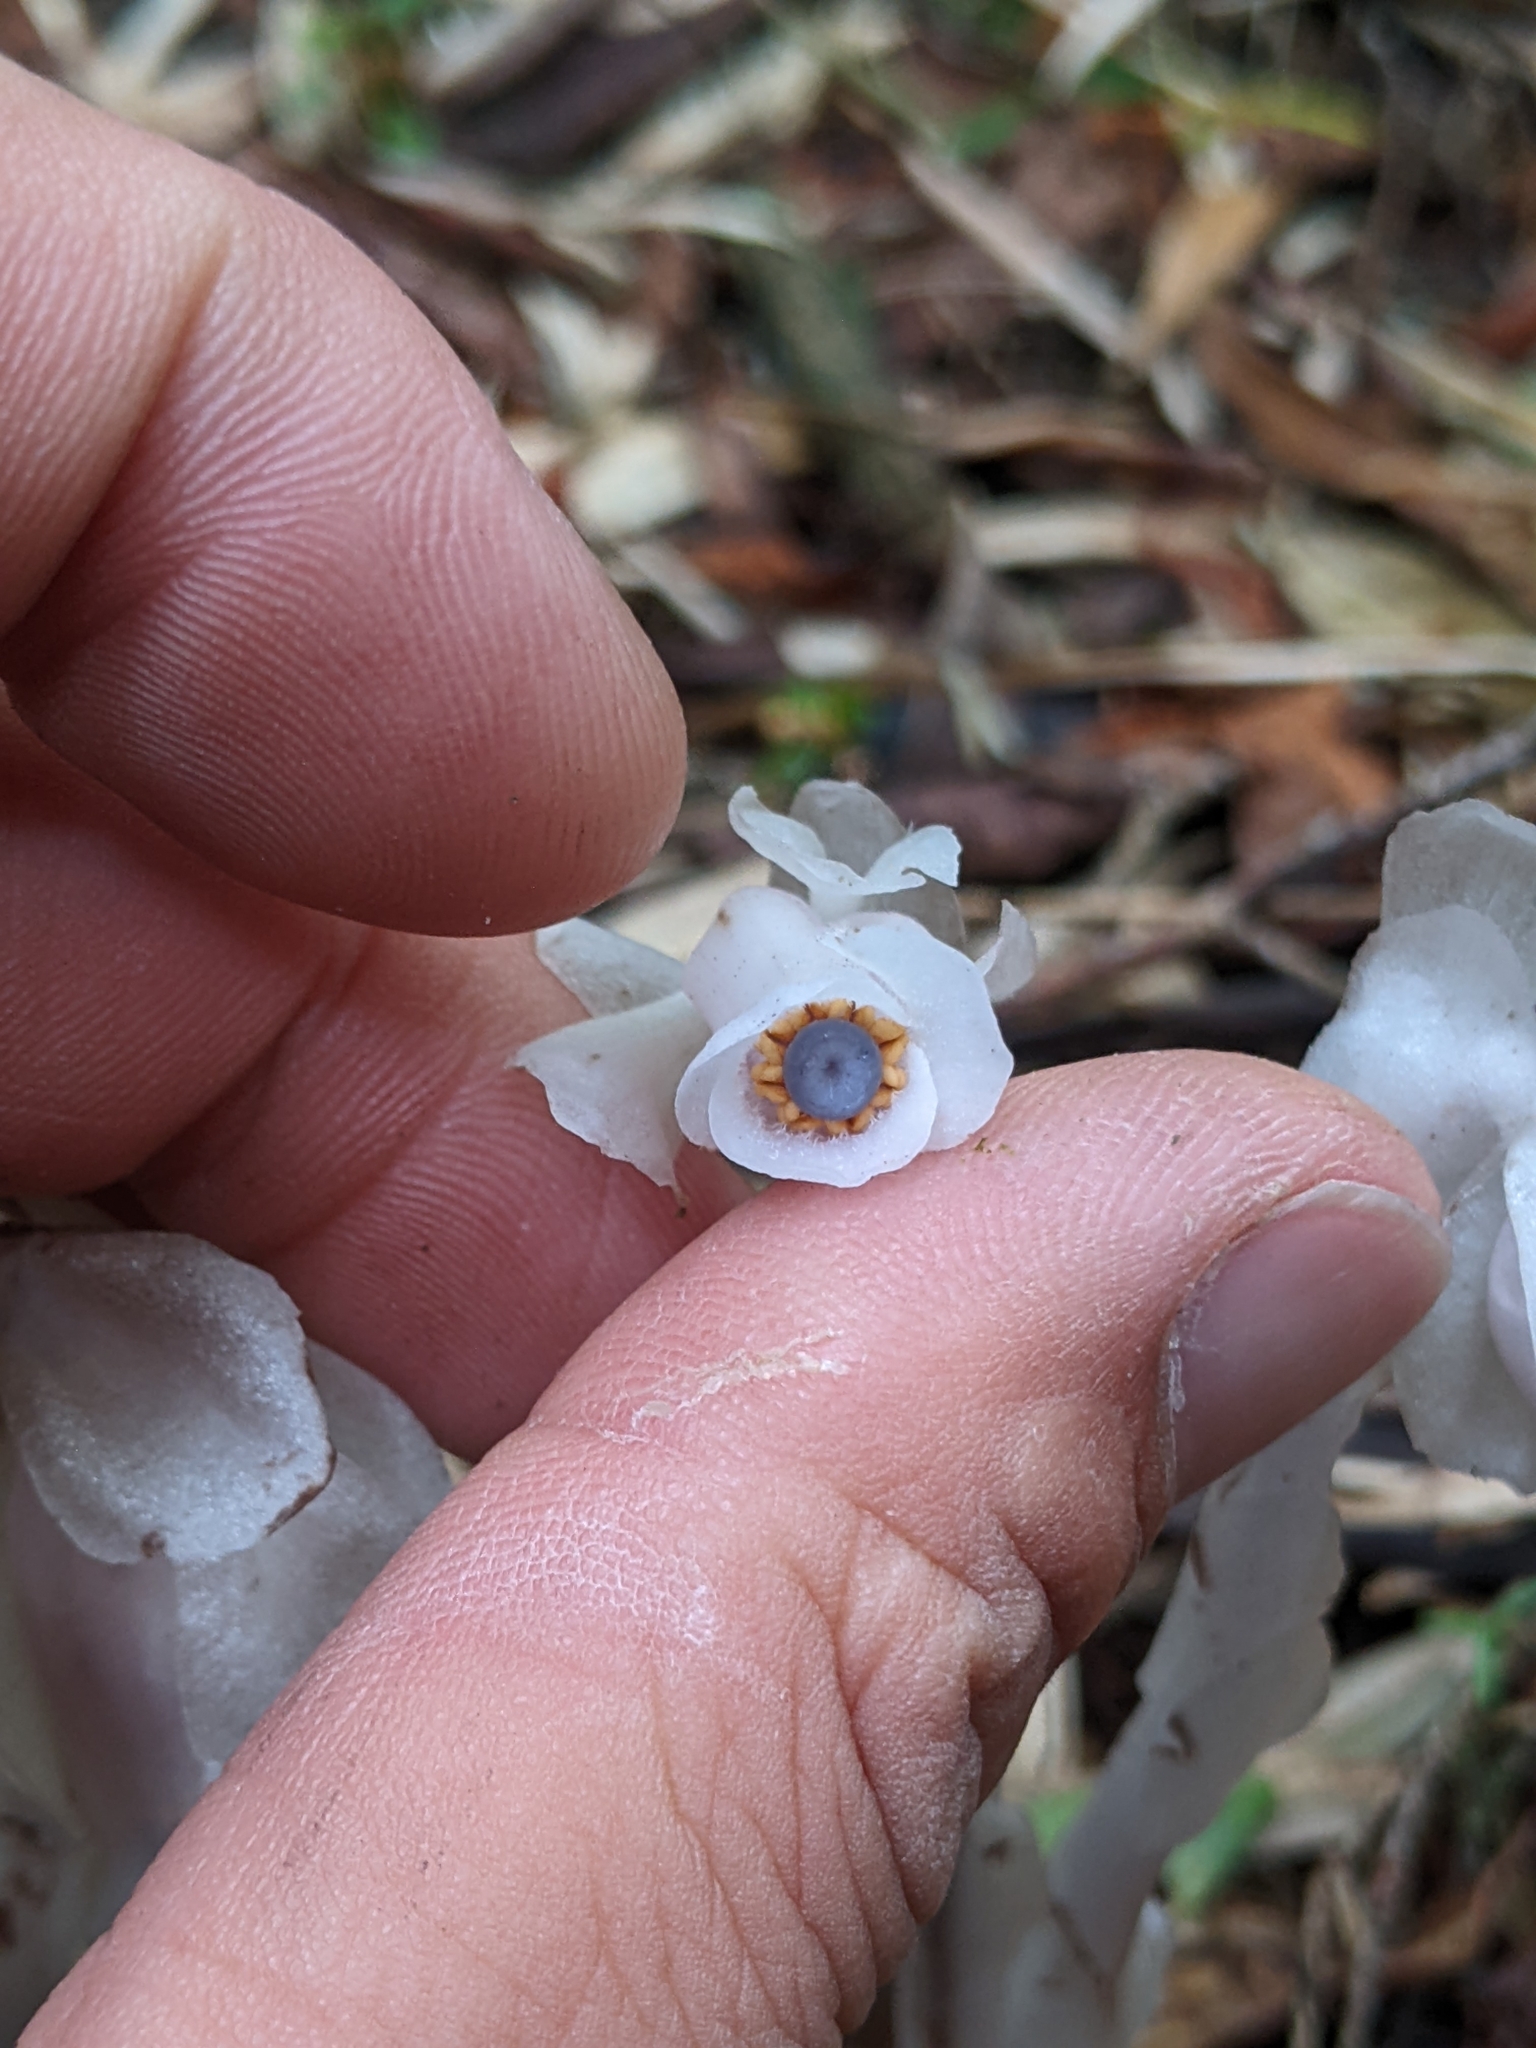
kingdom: Plantae
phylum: Tracheophyta
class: Magnoliopsida
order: Ericales
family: Ericaceae
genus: Monotropastrum
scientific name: Monotropastrum humile
